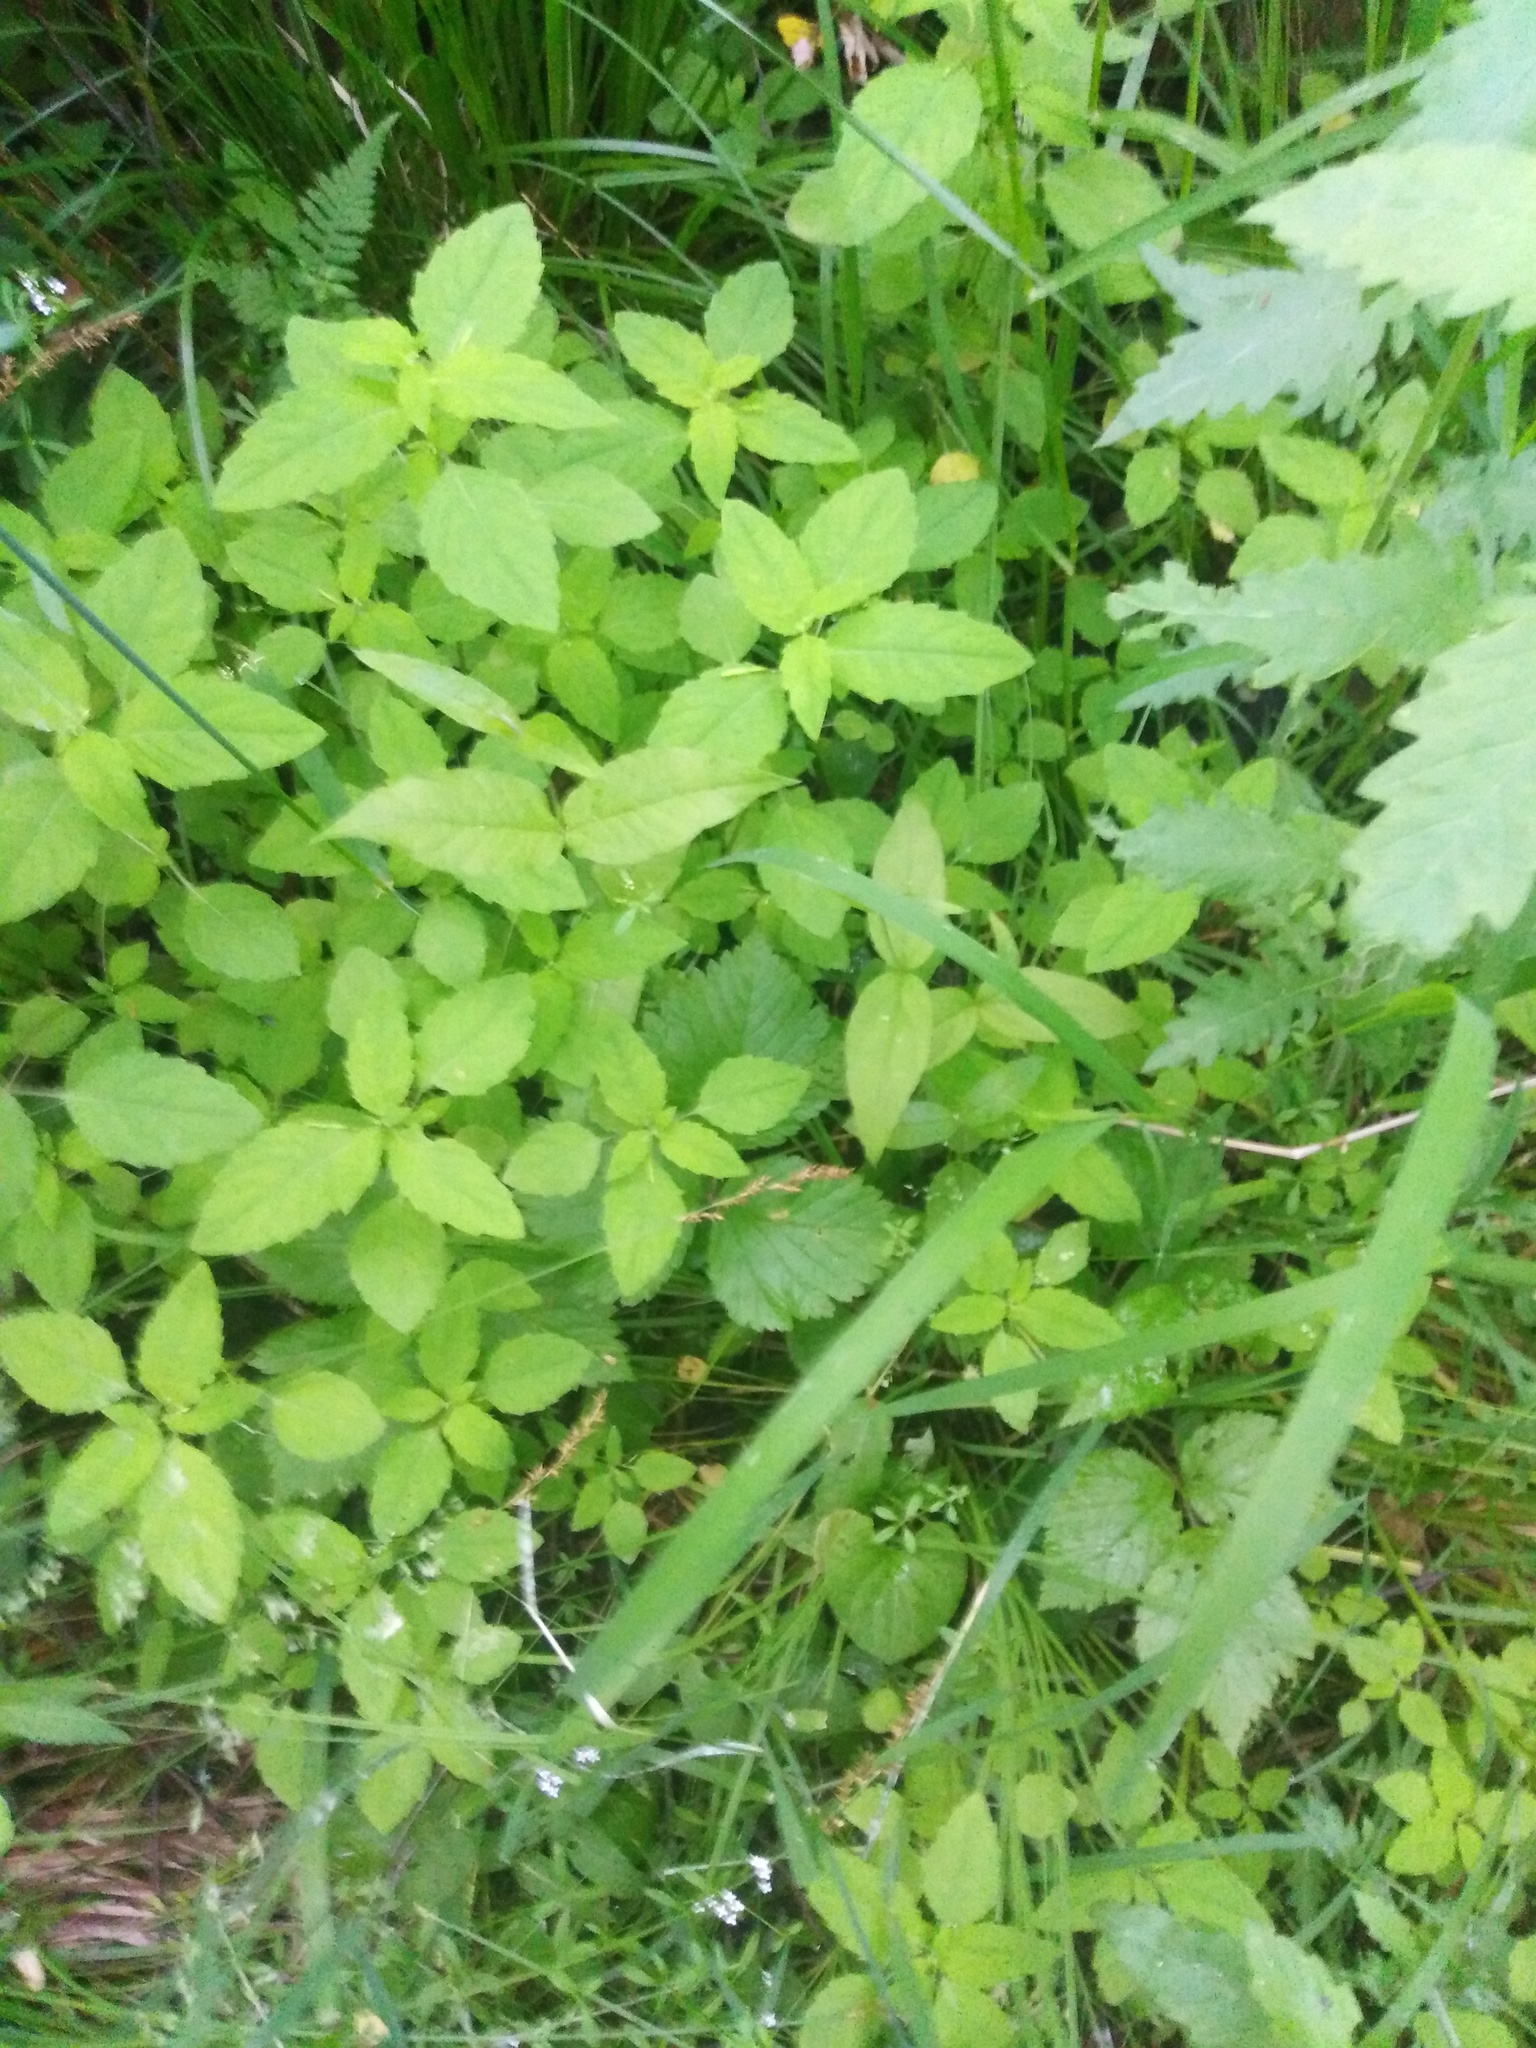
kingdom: Plantae
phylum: Tracheophyta
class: Magnoliopsida
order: Ericales
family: Balsaminaceae
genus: Impatiens
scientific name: Impatiens noli-tangere
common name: Touch-me-not balsam
